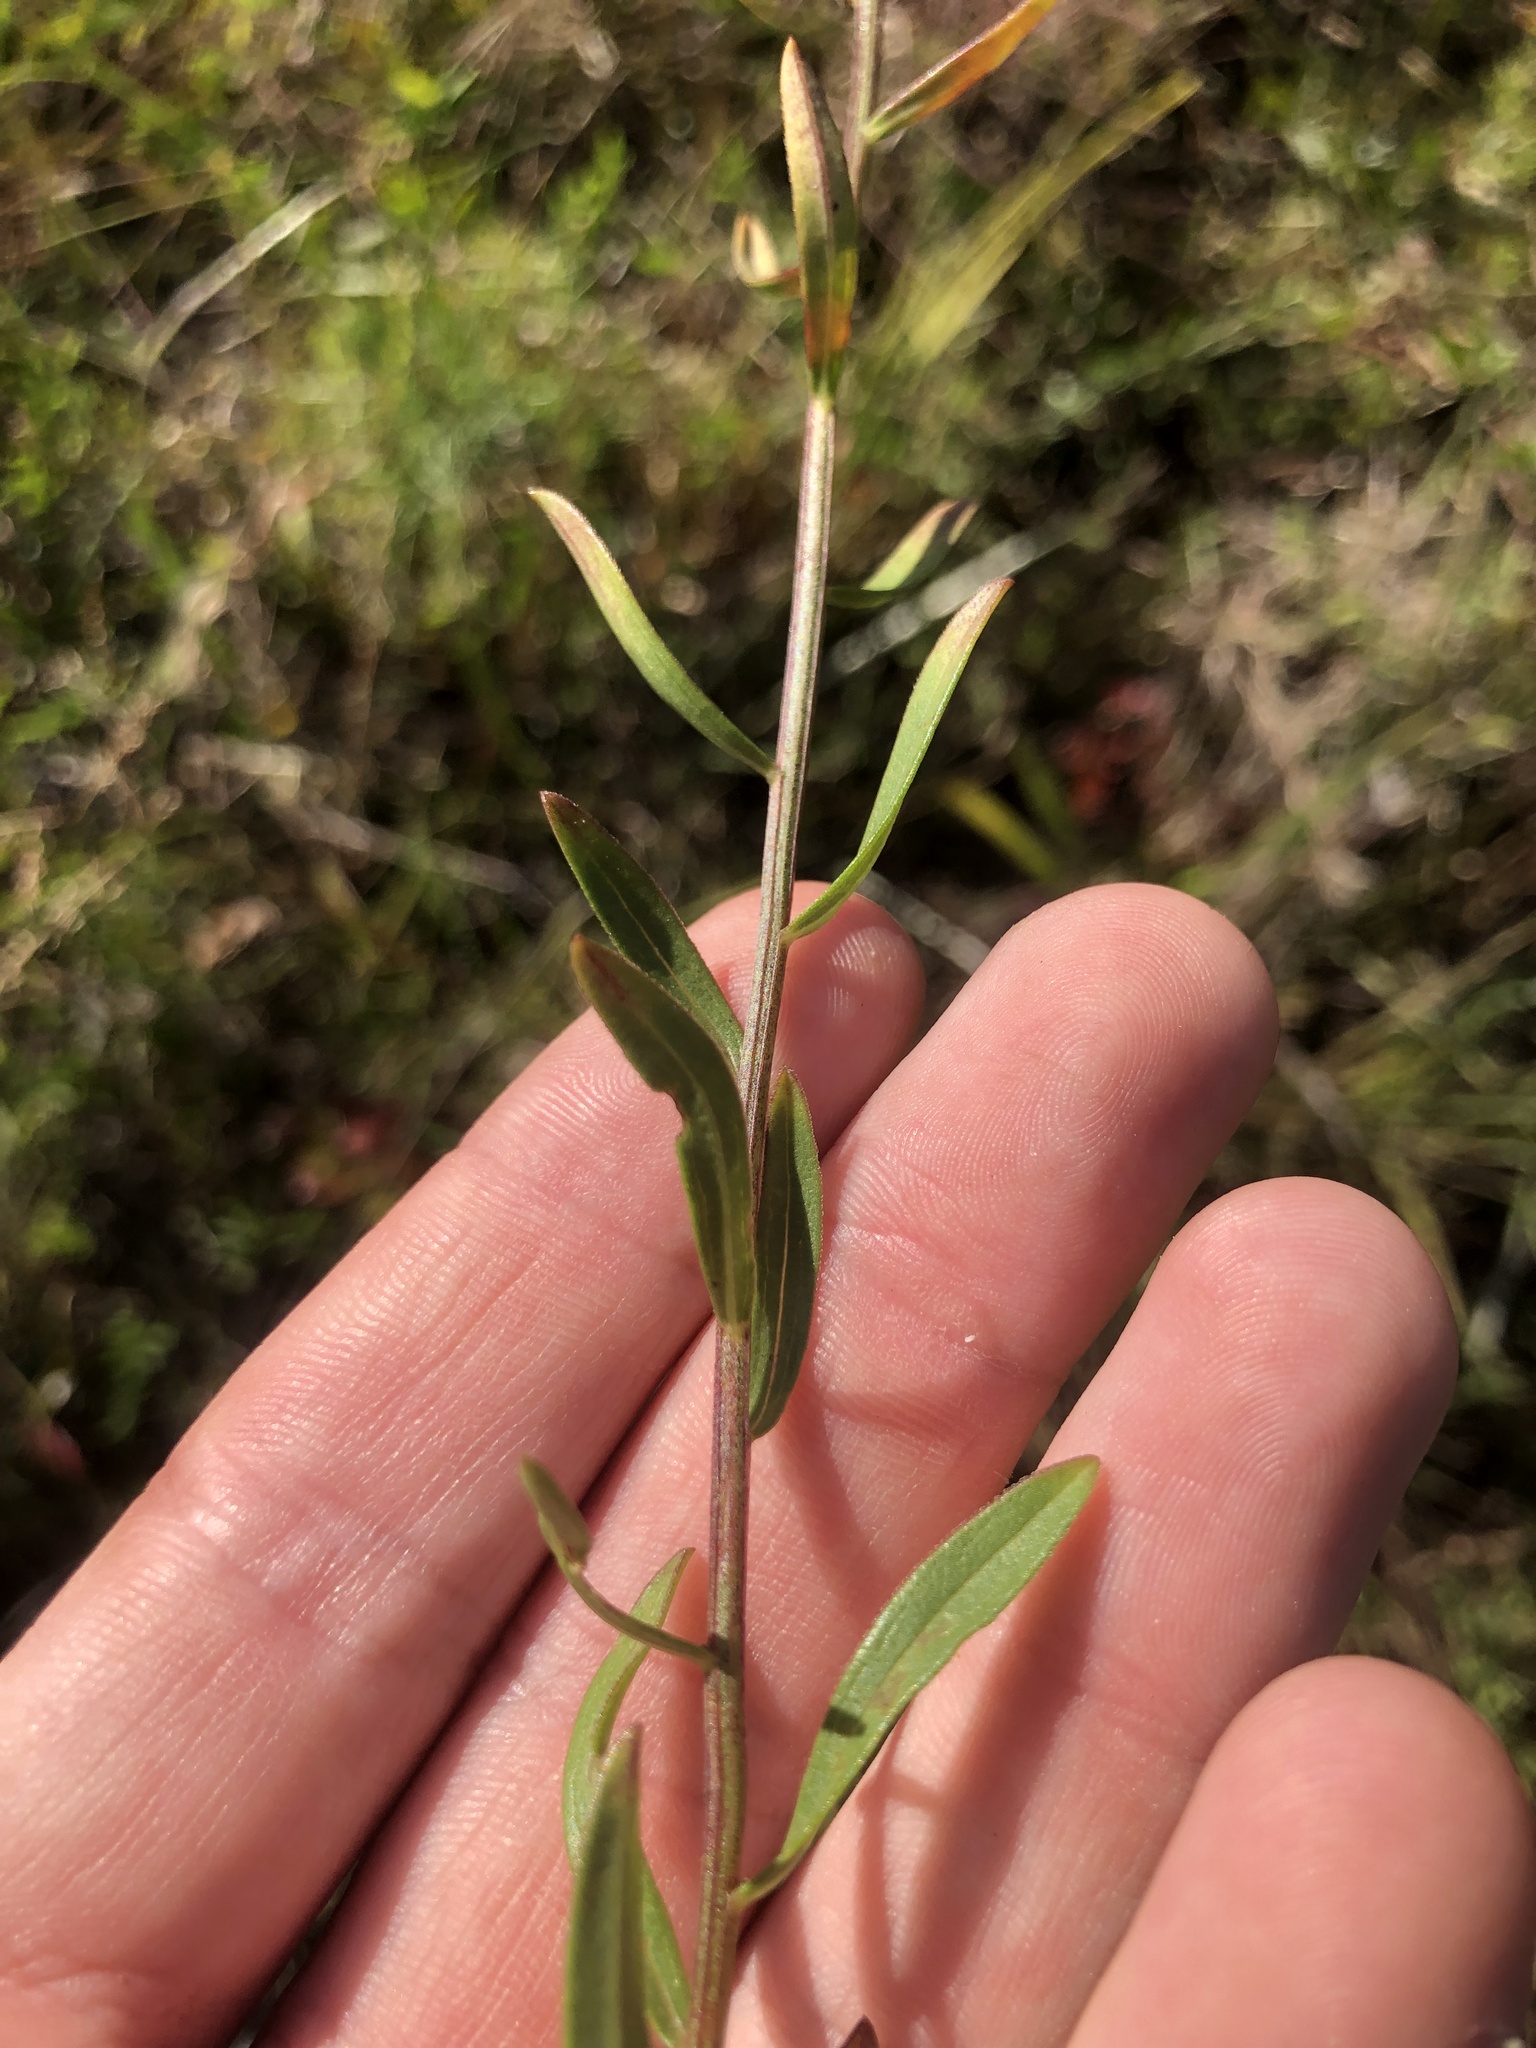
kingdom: Plantae
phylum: Tracheophyta
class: Magnoliopsida
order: Asterales
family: Asteraceae
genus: Sericocarpus
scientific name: Sericocarpus linifolius
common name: Narrow-leaf aster
